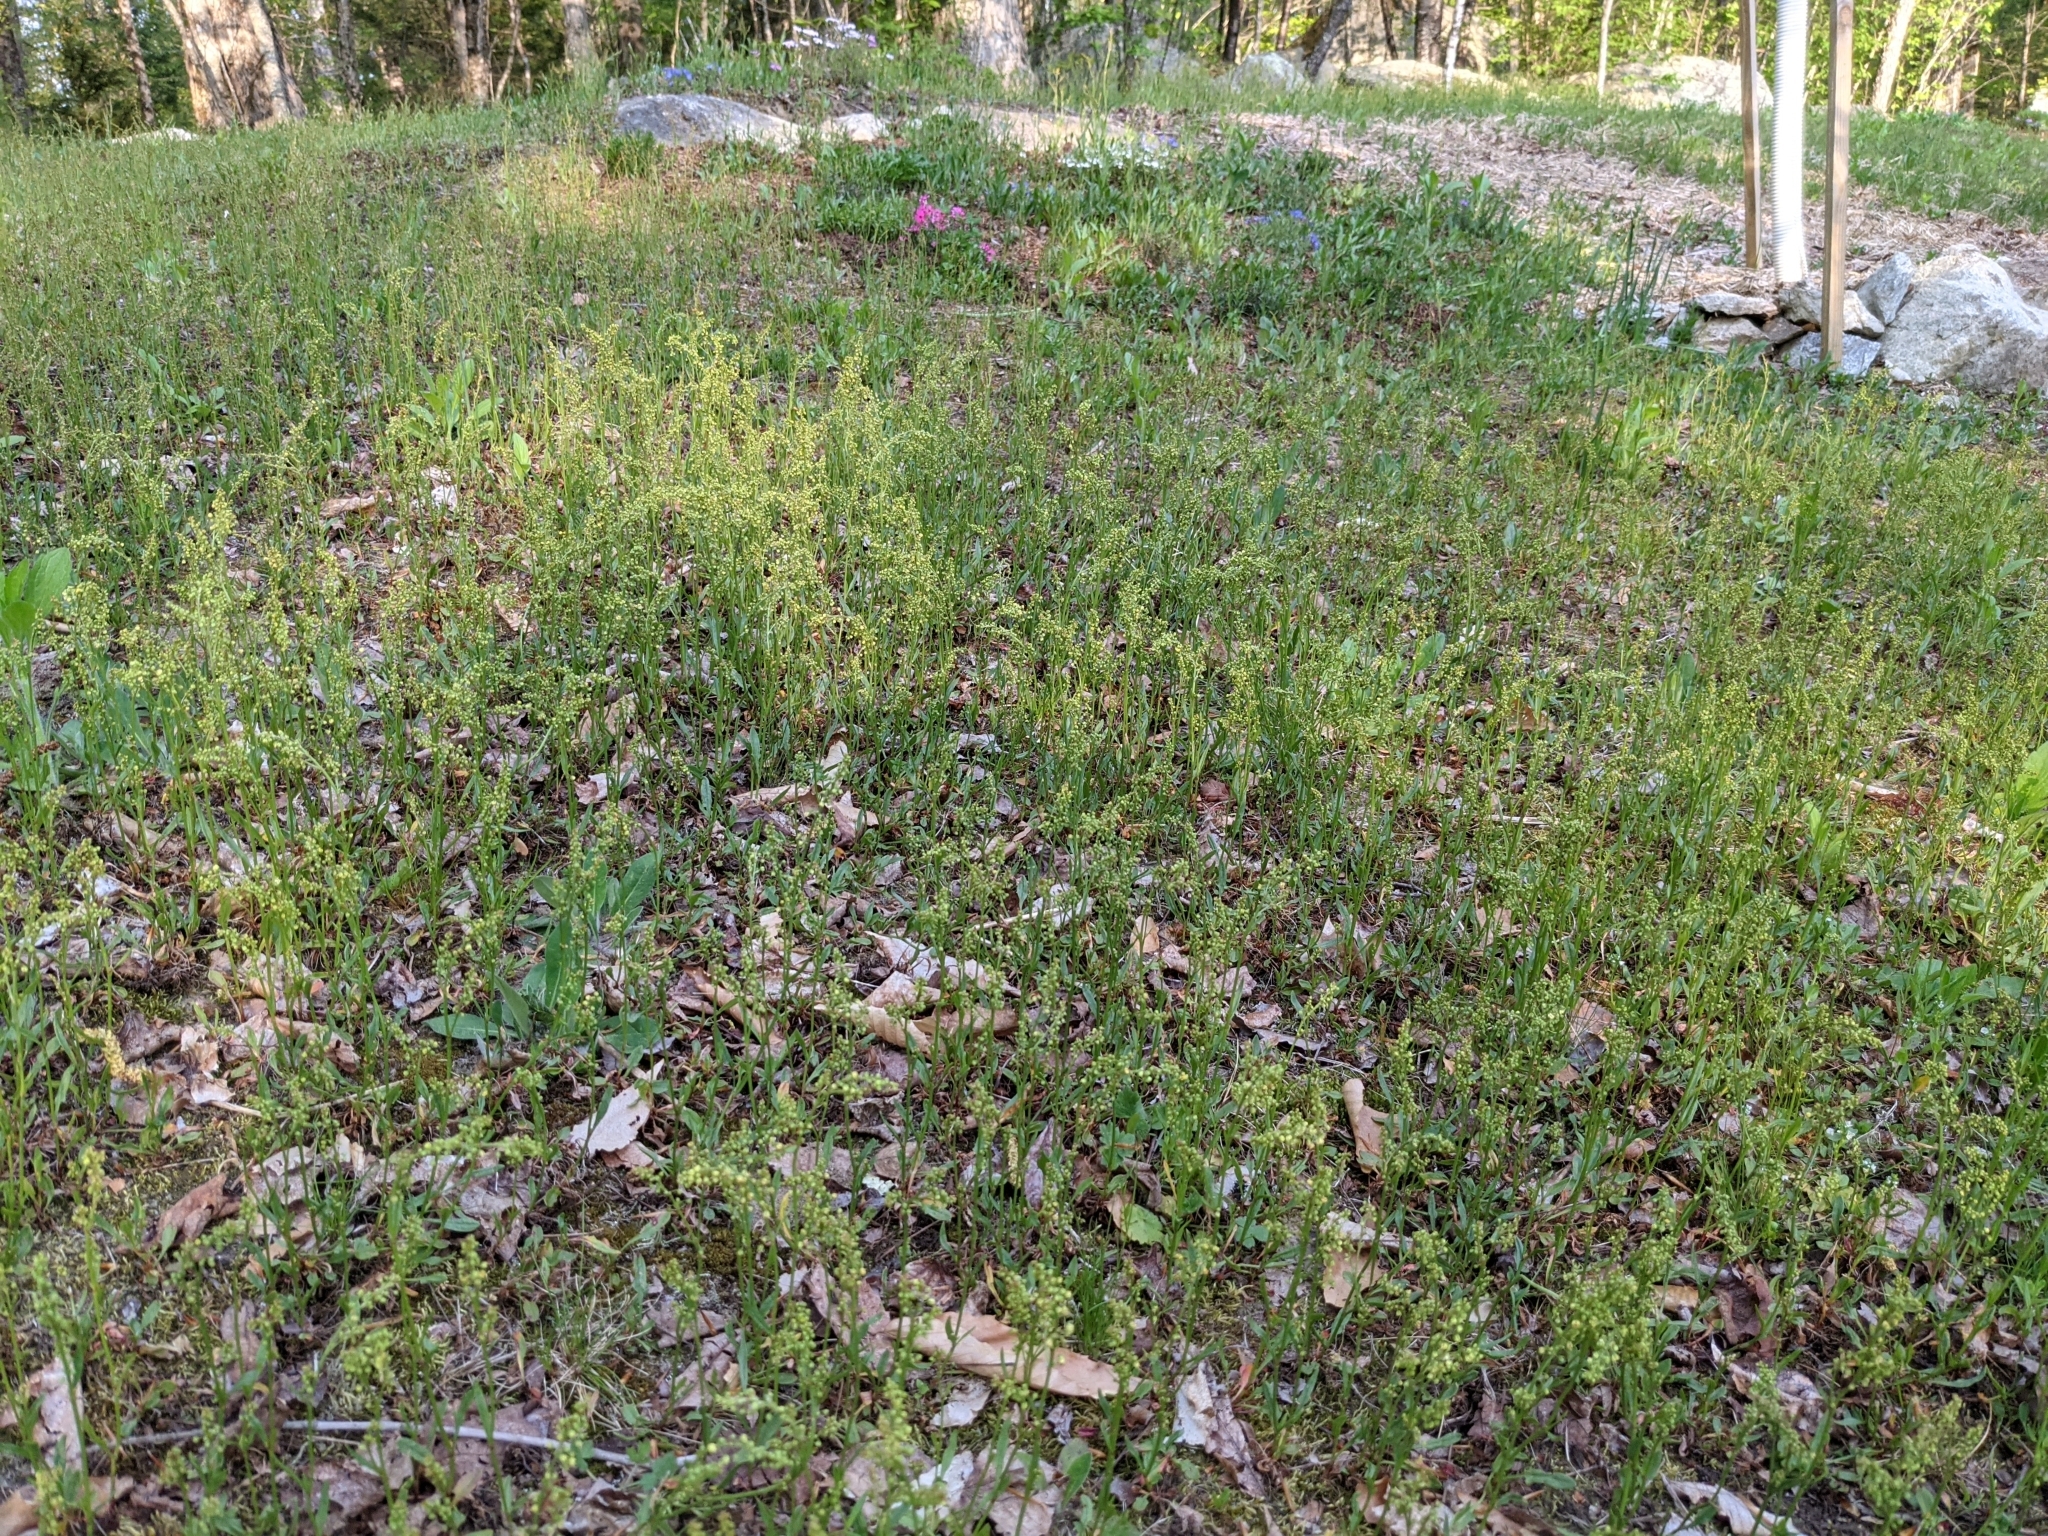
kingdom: Plantae
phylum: Tracheophyta
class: Magnoliopsida
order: Caryophyllales
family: Polygonaceae
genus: Rumex
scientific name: Rumex acetosella
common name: Common sheep sorrel
